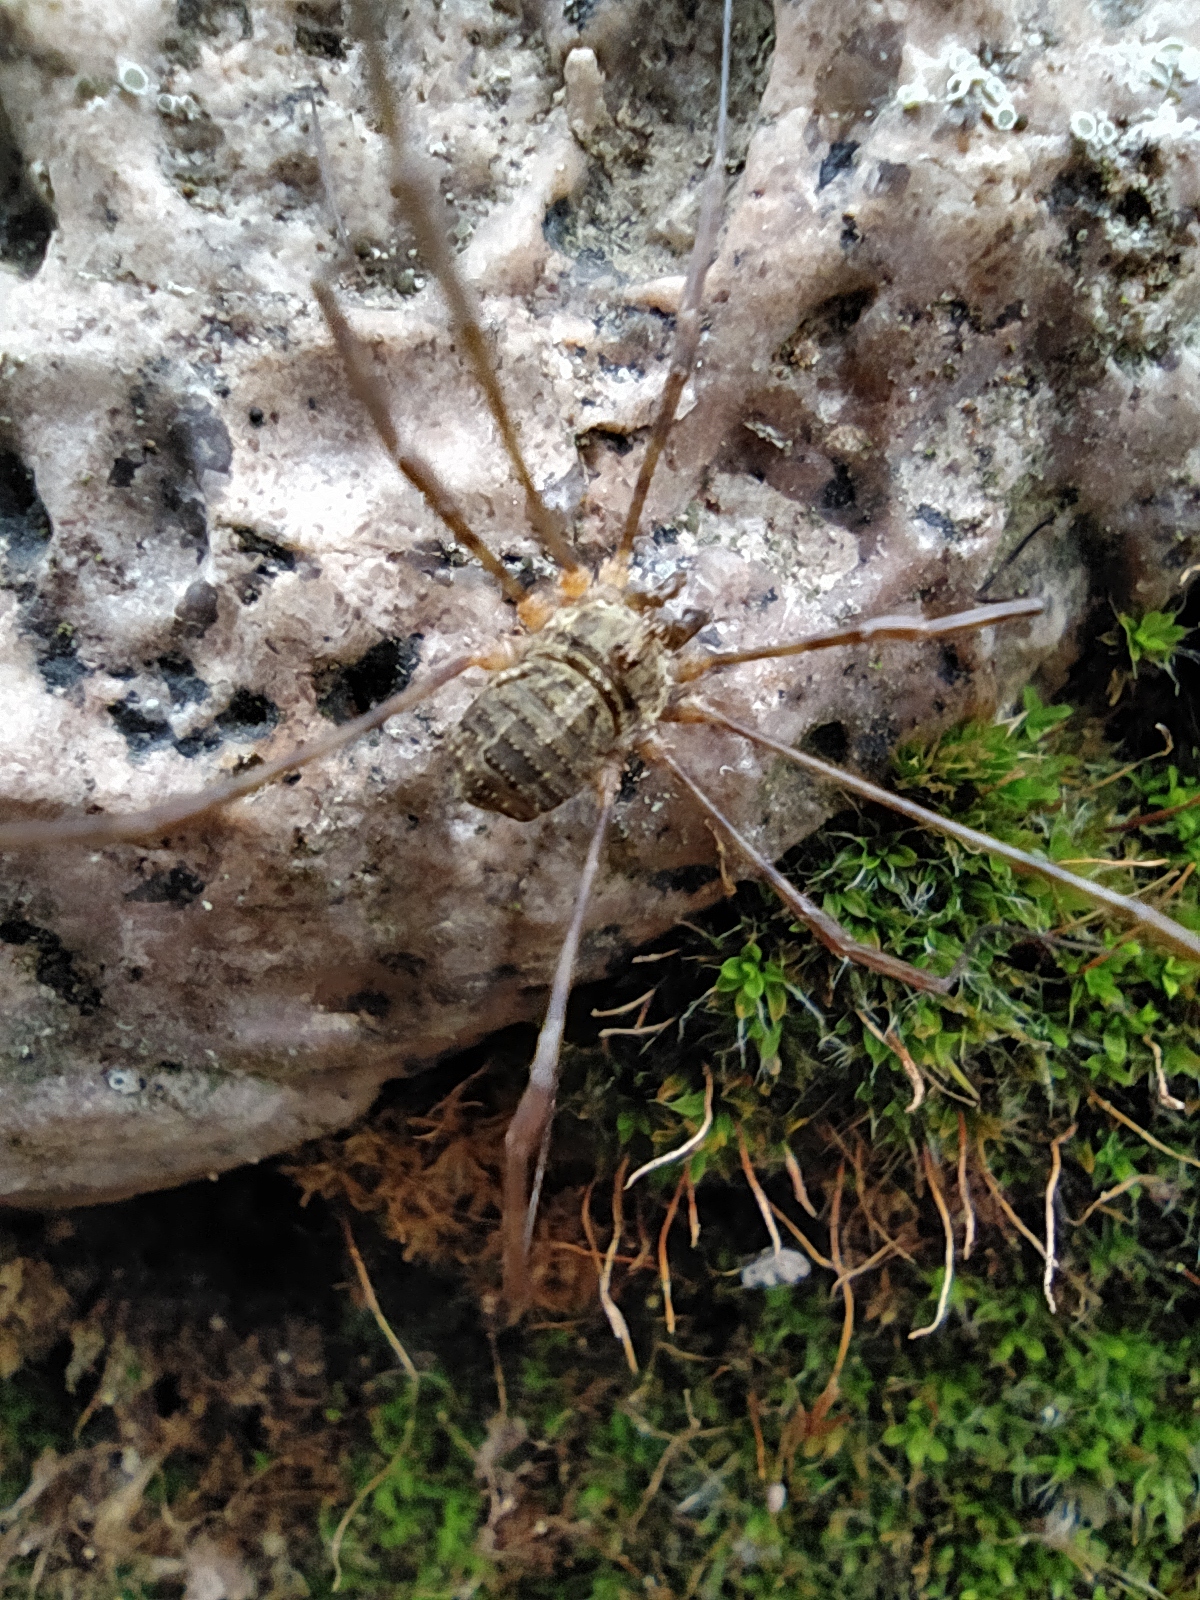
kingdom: Animalia
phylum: Arthropoda
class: Arachnida
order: Opiliones
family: Phalangiidae
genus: Lacinius
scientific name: Lacinius dentiger
